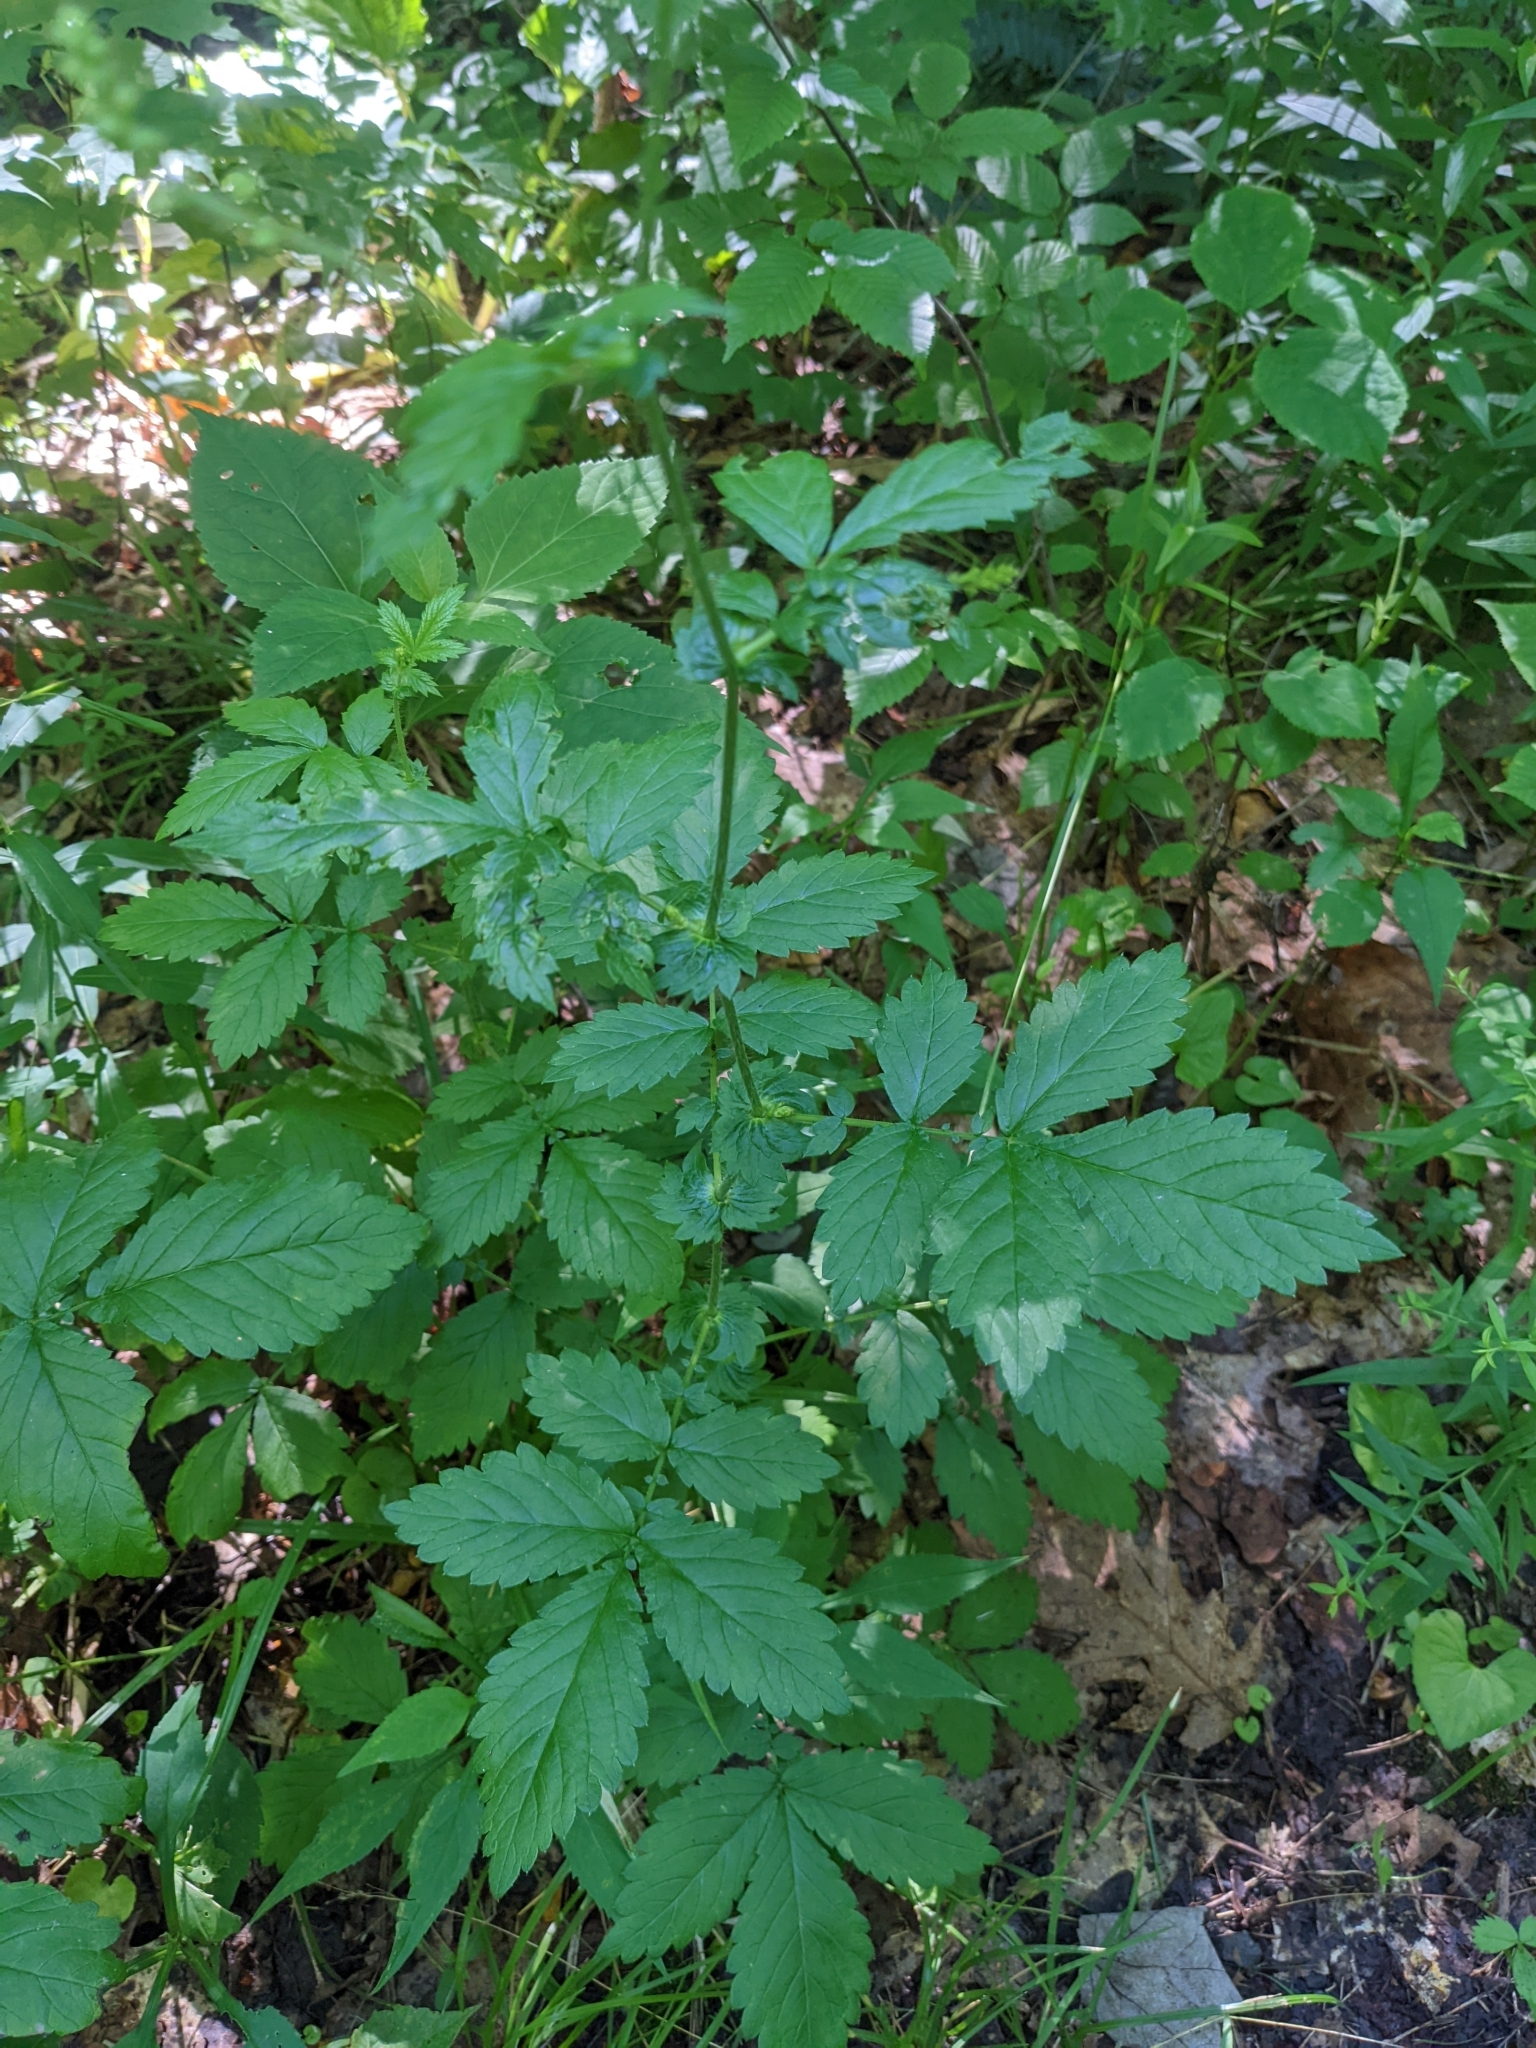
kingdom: Plantae
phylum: Tracheophyta
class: Magnoliopsida
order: Rosales
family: Rosaceae
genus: Agrimonia
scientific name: Agrimonia gryposepala
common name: Common agrimony
